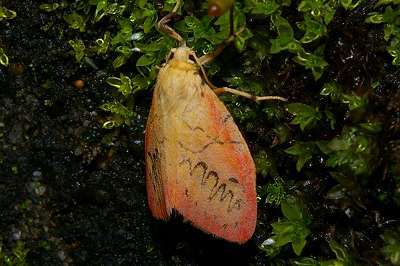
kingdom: Animalia
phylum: Arthropoda
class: Insecta
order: Lepidoptera
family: Erebidae
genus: Miltochrista
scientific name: Miltochrista miniata
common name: Rosy footman
